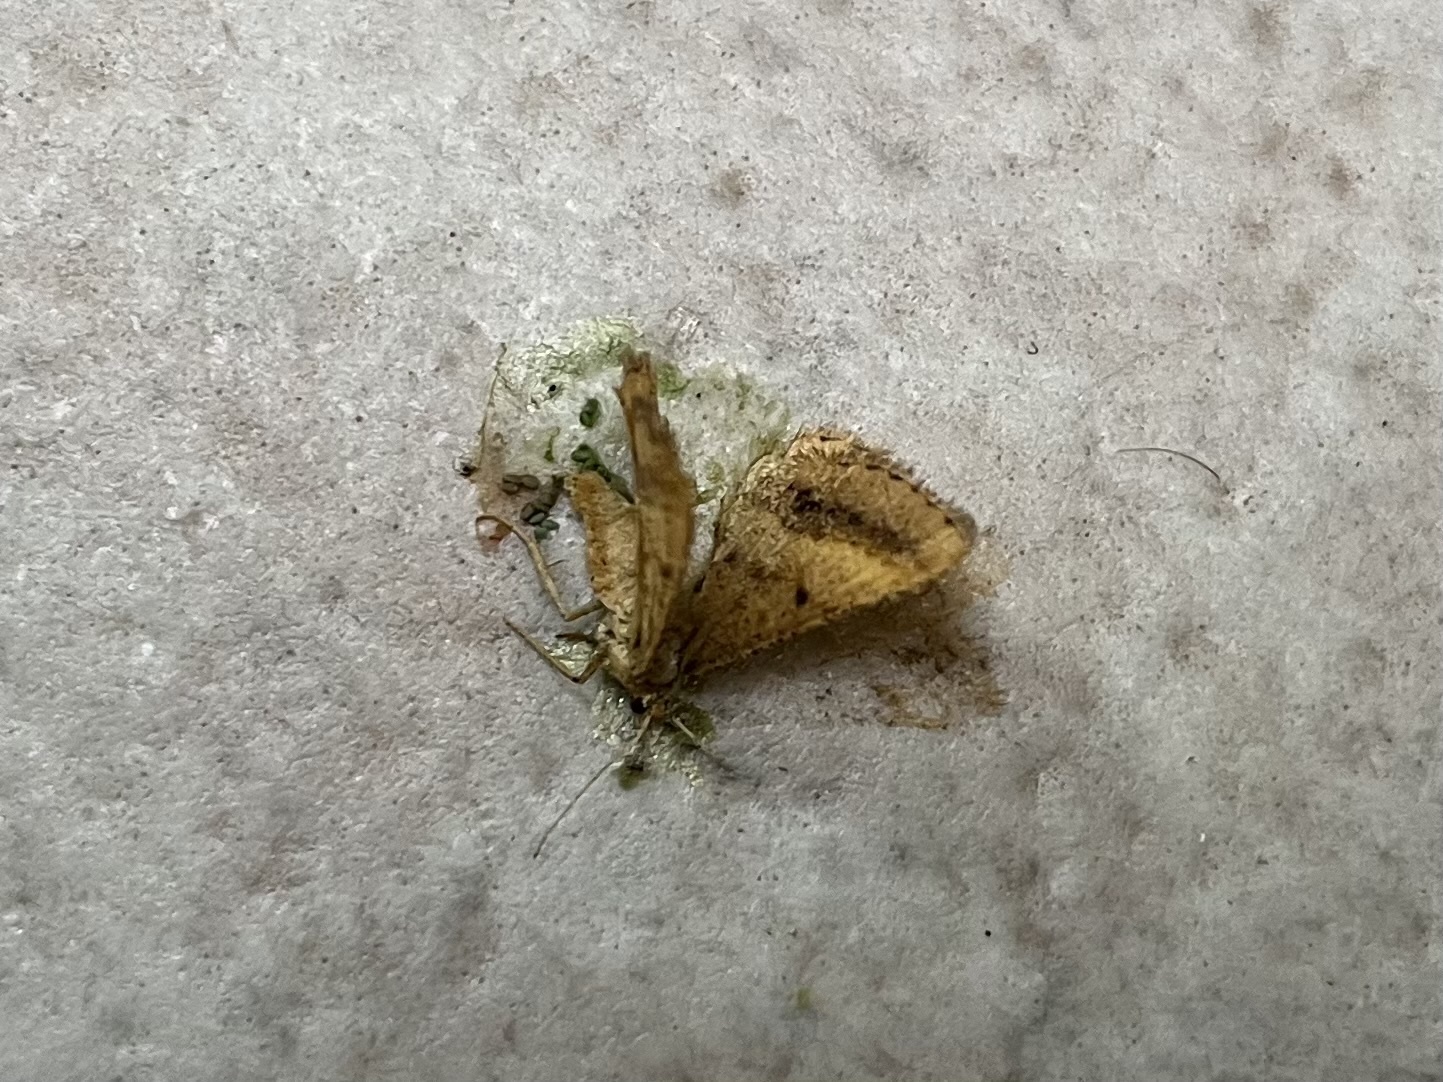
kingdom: Animalia
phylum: Arthropoda
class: Insecta
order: Lepidoptera
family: Geometridae
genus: Tephrina
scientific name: Tephrina arenacearia
